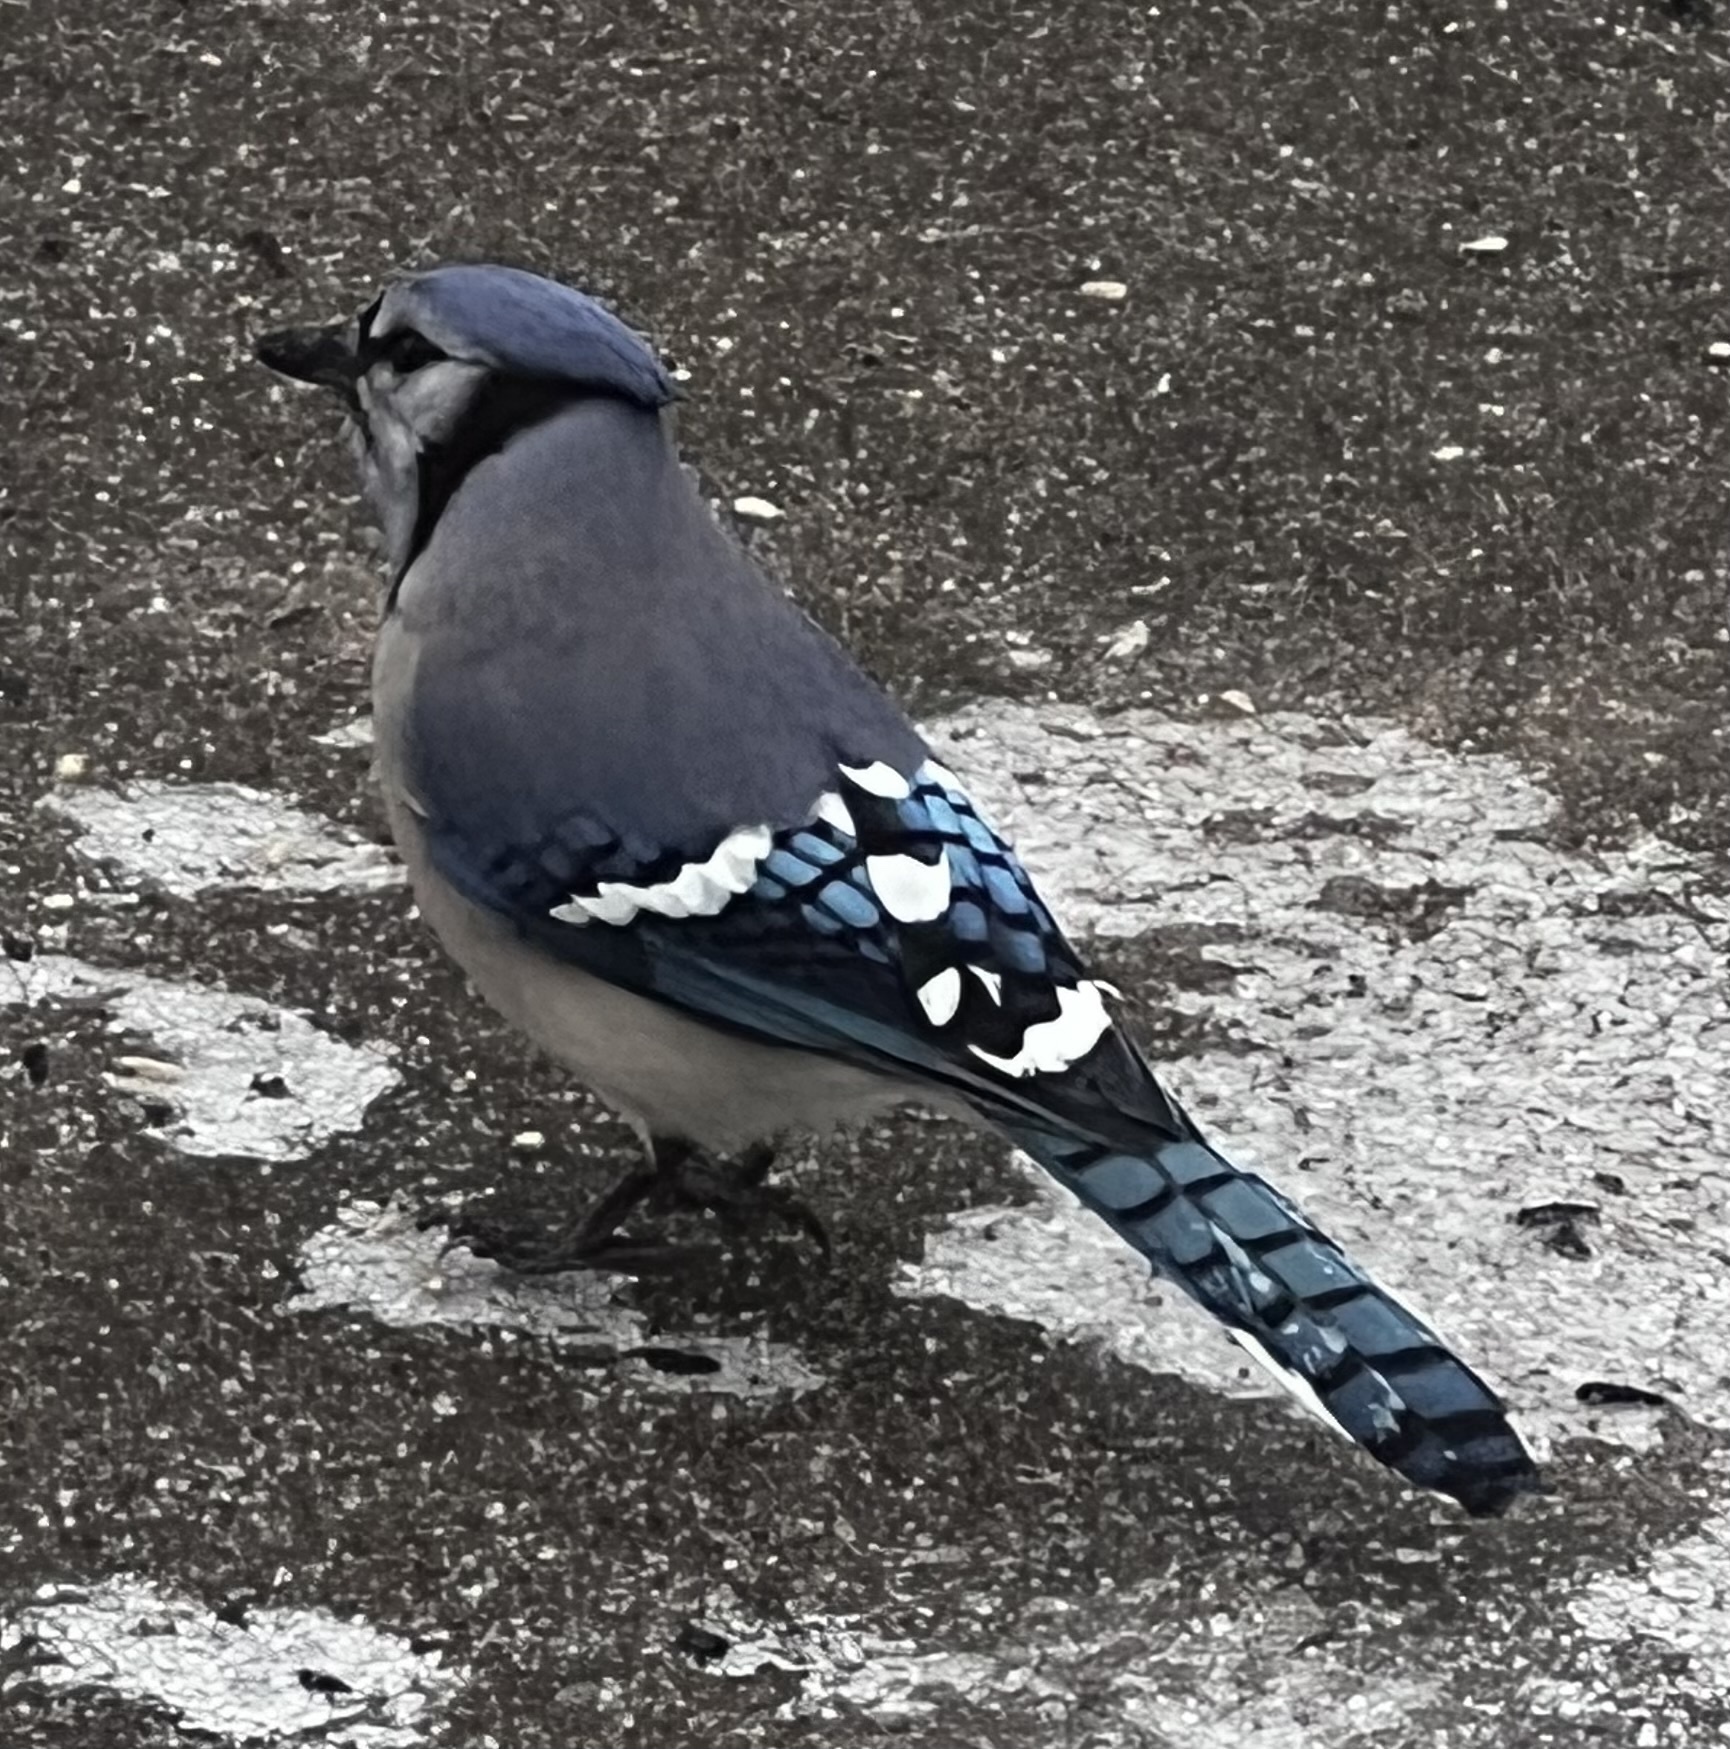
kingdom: Animalia
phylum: Chordata
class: Aves
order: Passeriformes
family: Corvidae
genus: Cyanocitta
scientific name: Cyanocitta cristata
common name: Blue jay
